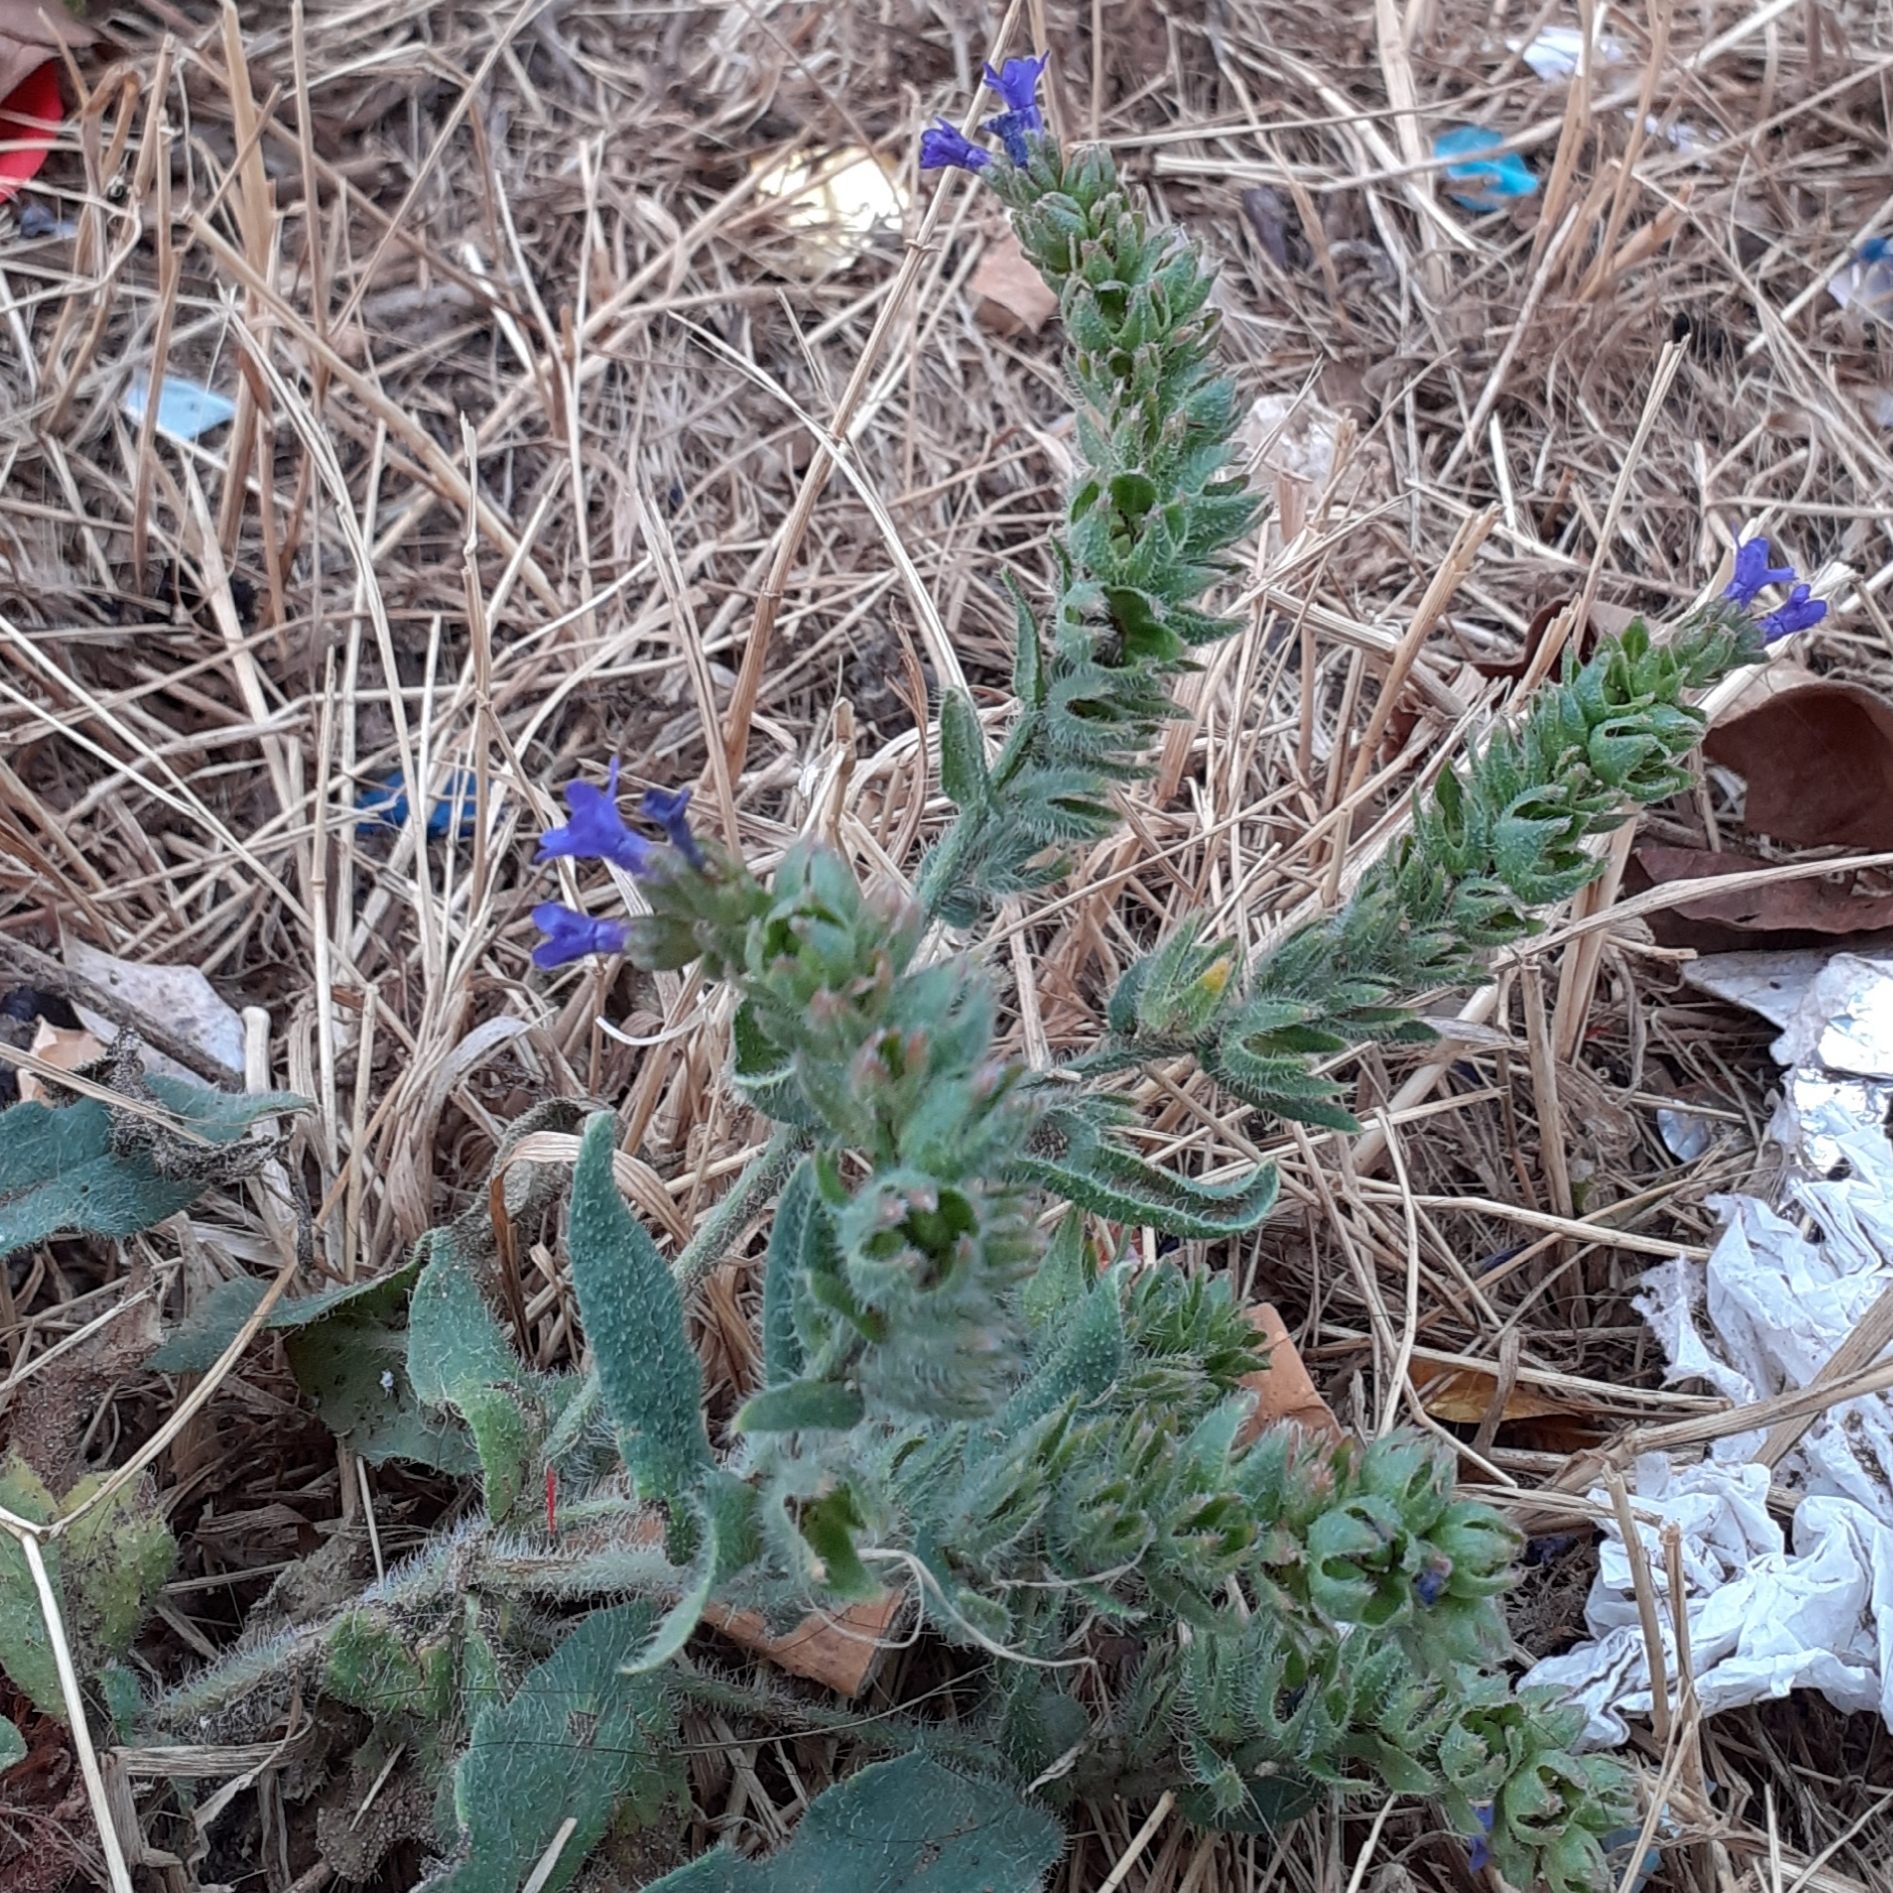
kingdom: Plantae
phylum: Tracheophyta
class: Magnoliopsida
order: Boraginales
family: Boraginaceae
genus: Anchusa
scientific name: Anchusa officinalis
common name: Alkanet
